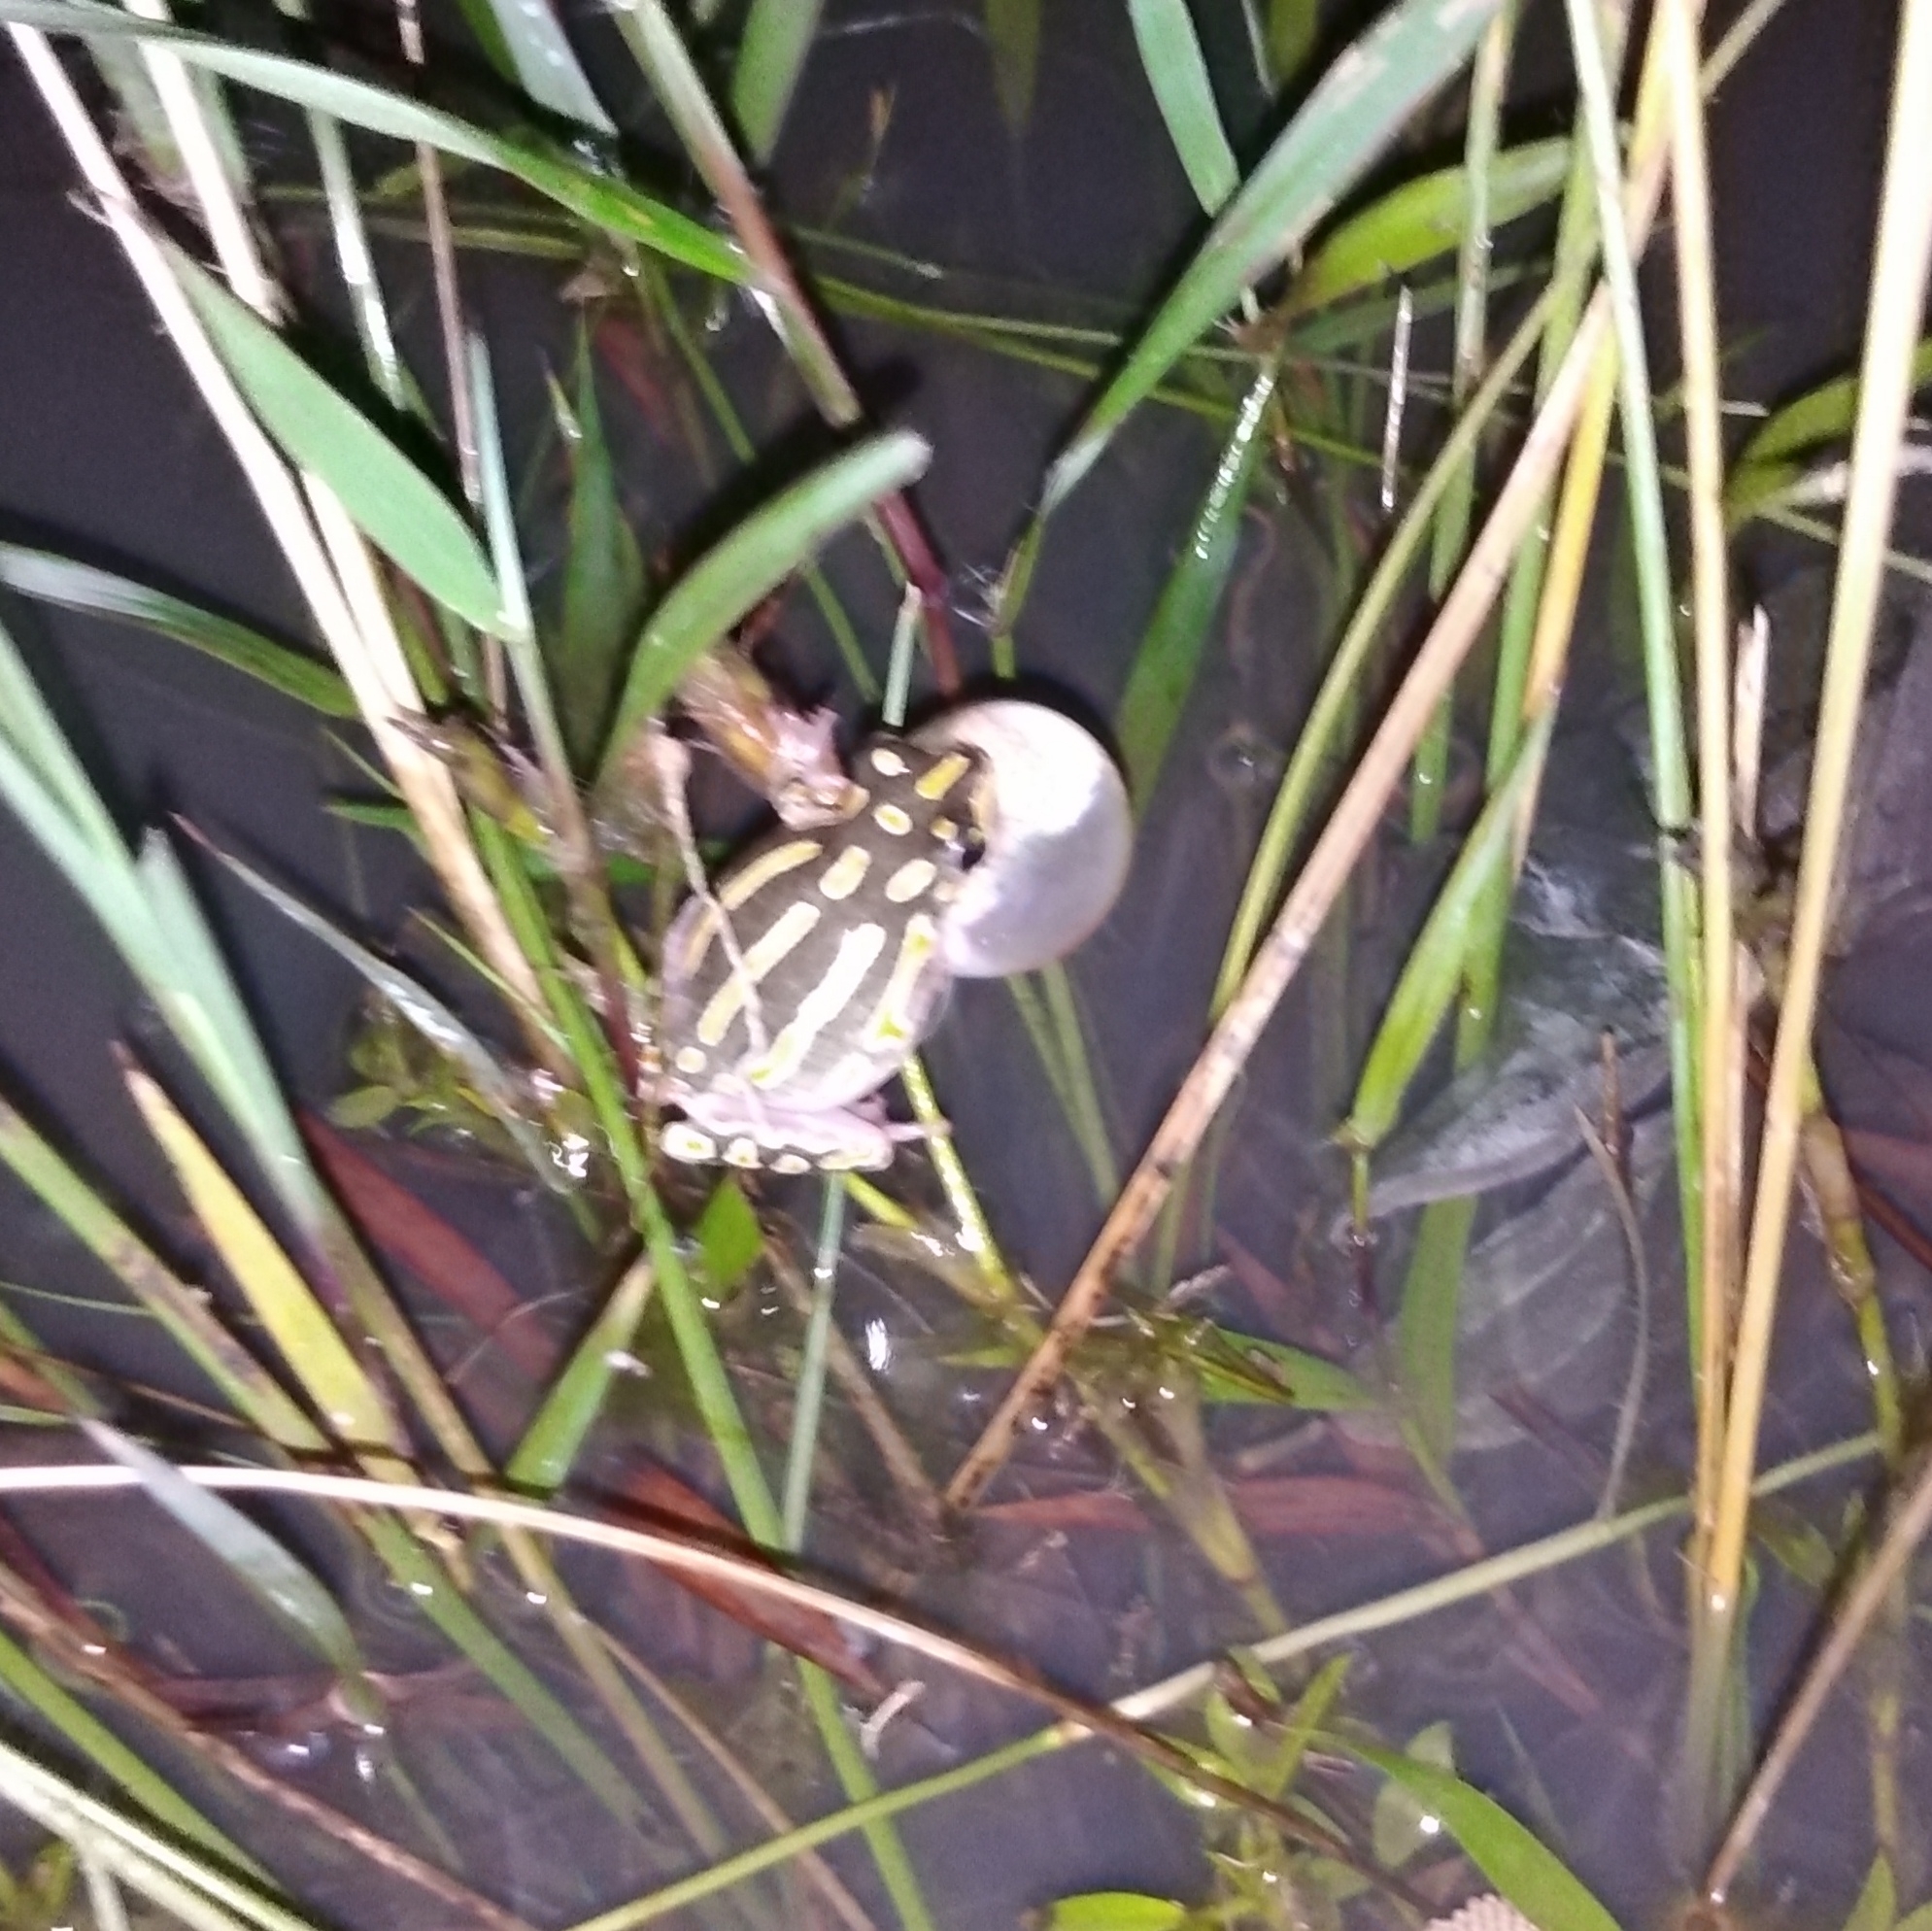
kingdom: Animalia
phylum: Chordata
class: Amphibia
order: Anura
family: Hyperoliidae
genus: Hyperolius
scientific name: Hyperolius marmoratus
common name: Painted reed frog
